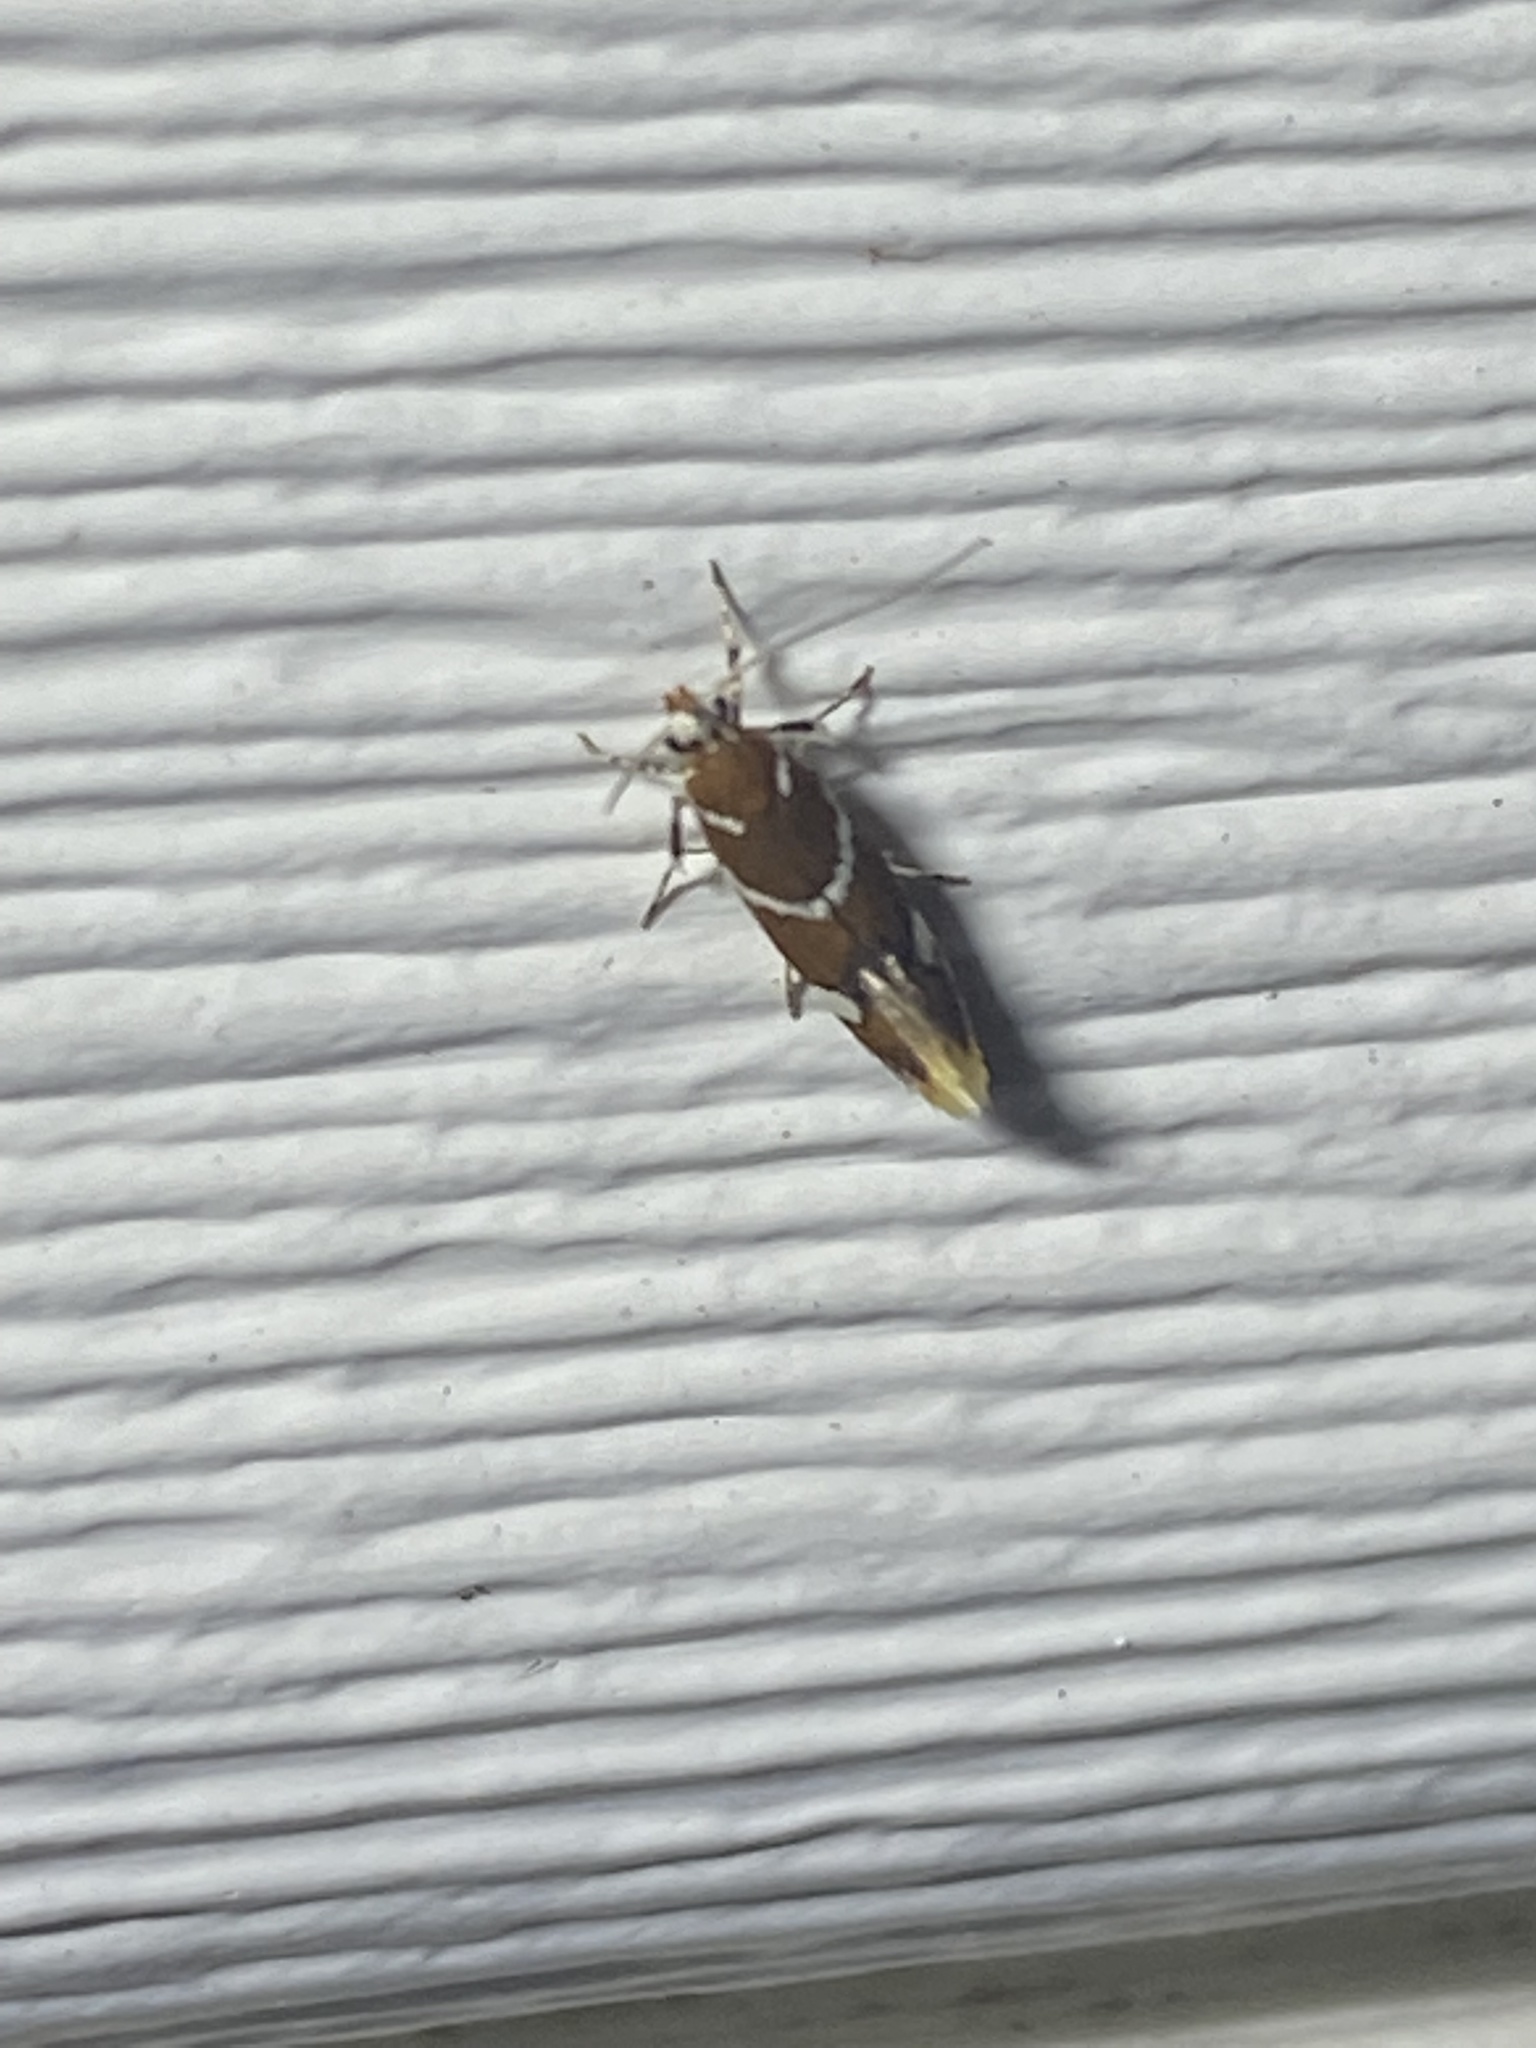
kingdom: Animalia
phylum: Arthropoda
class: Insecta
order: Lepidoptera
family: Oecophoridae
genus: Promalactis
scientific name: Promalactis suzukiella
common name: Moth
